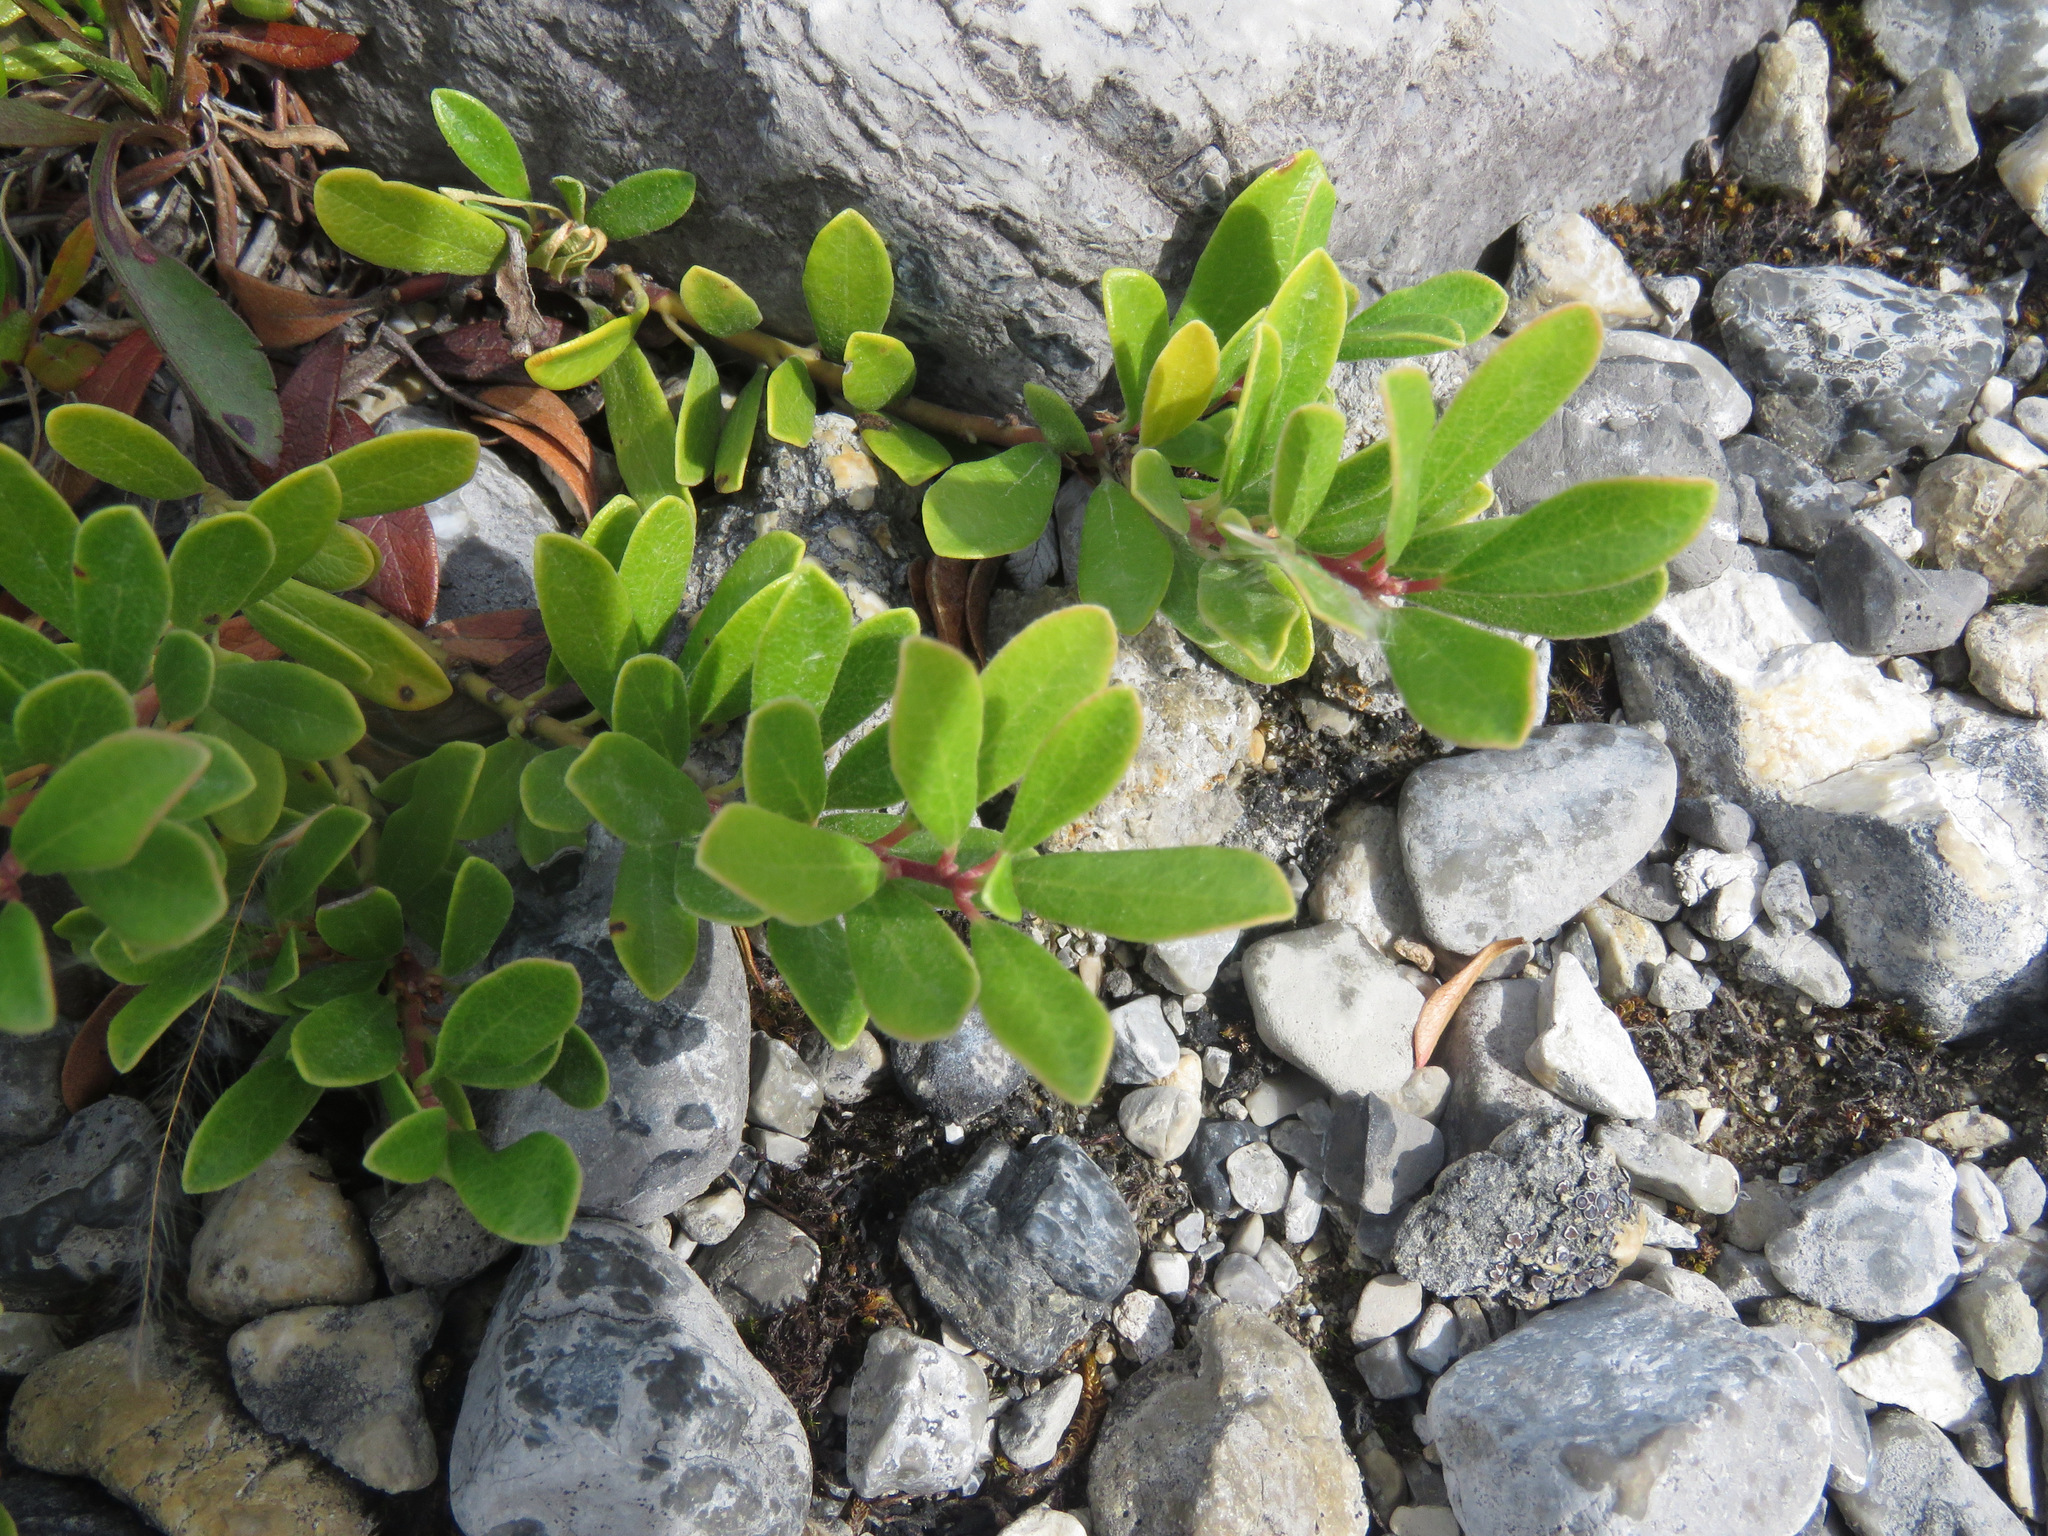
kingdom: Plantae
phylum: Tracheophyta
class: Magnoliopsida
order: Ericales
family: Ericaceae
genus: Arctostaphylos
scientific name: Arctostaphylos uva-ursi
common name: Bearberry
